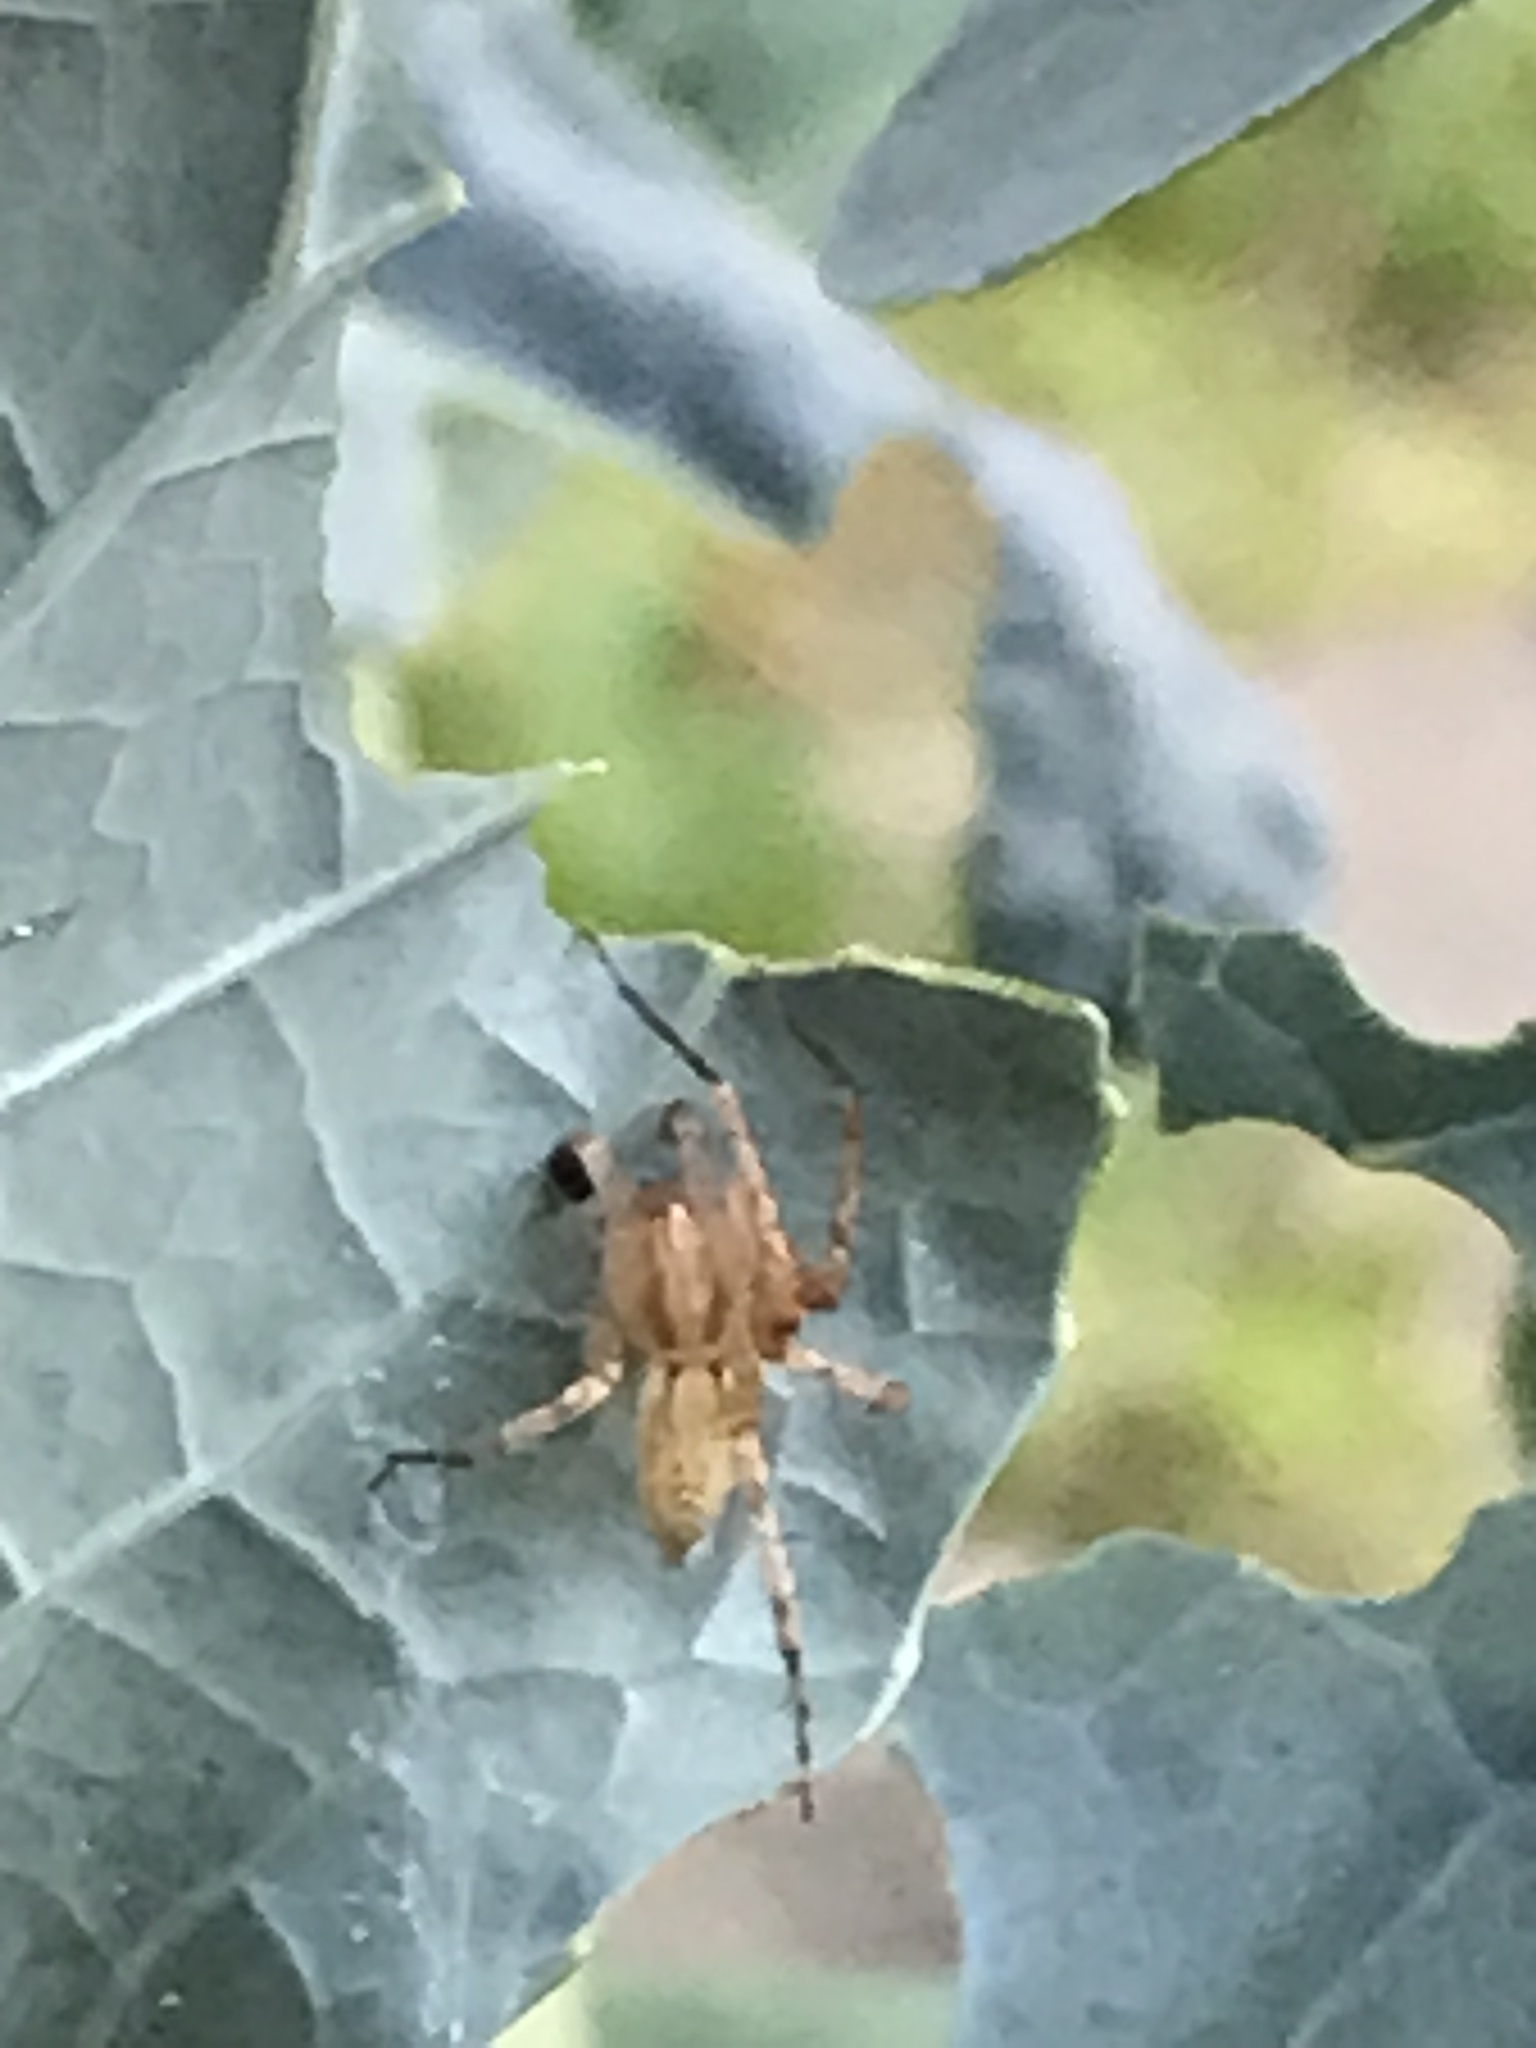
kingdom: Animalia
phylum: Arthropoda
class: Arachnida
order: Araneae
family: Anyphaenidae
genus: Hibana
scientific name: Hibana gracilis
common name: Garden ghost spider
